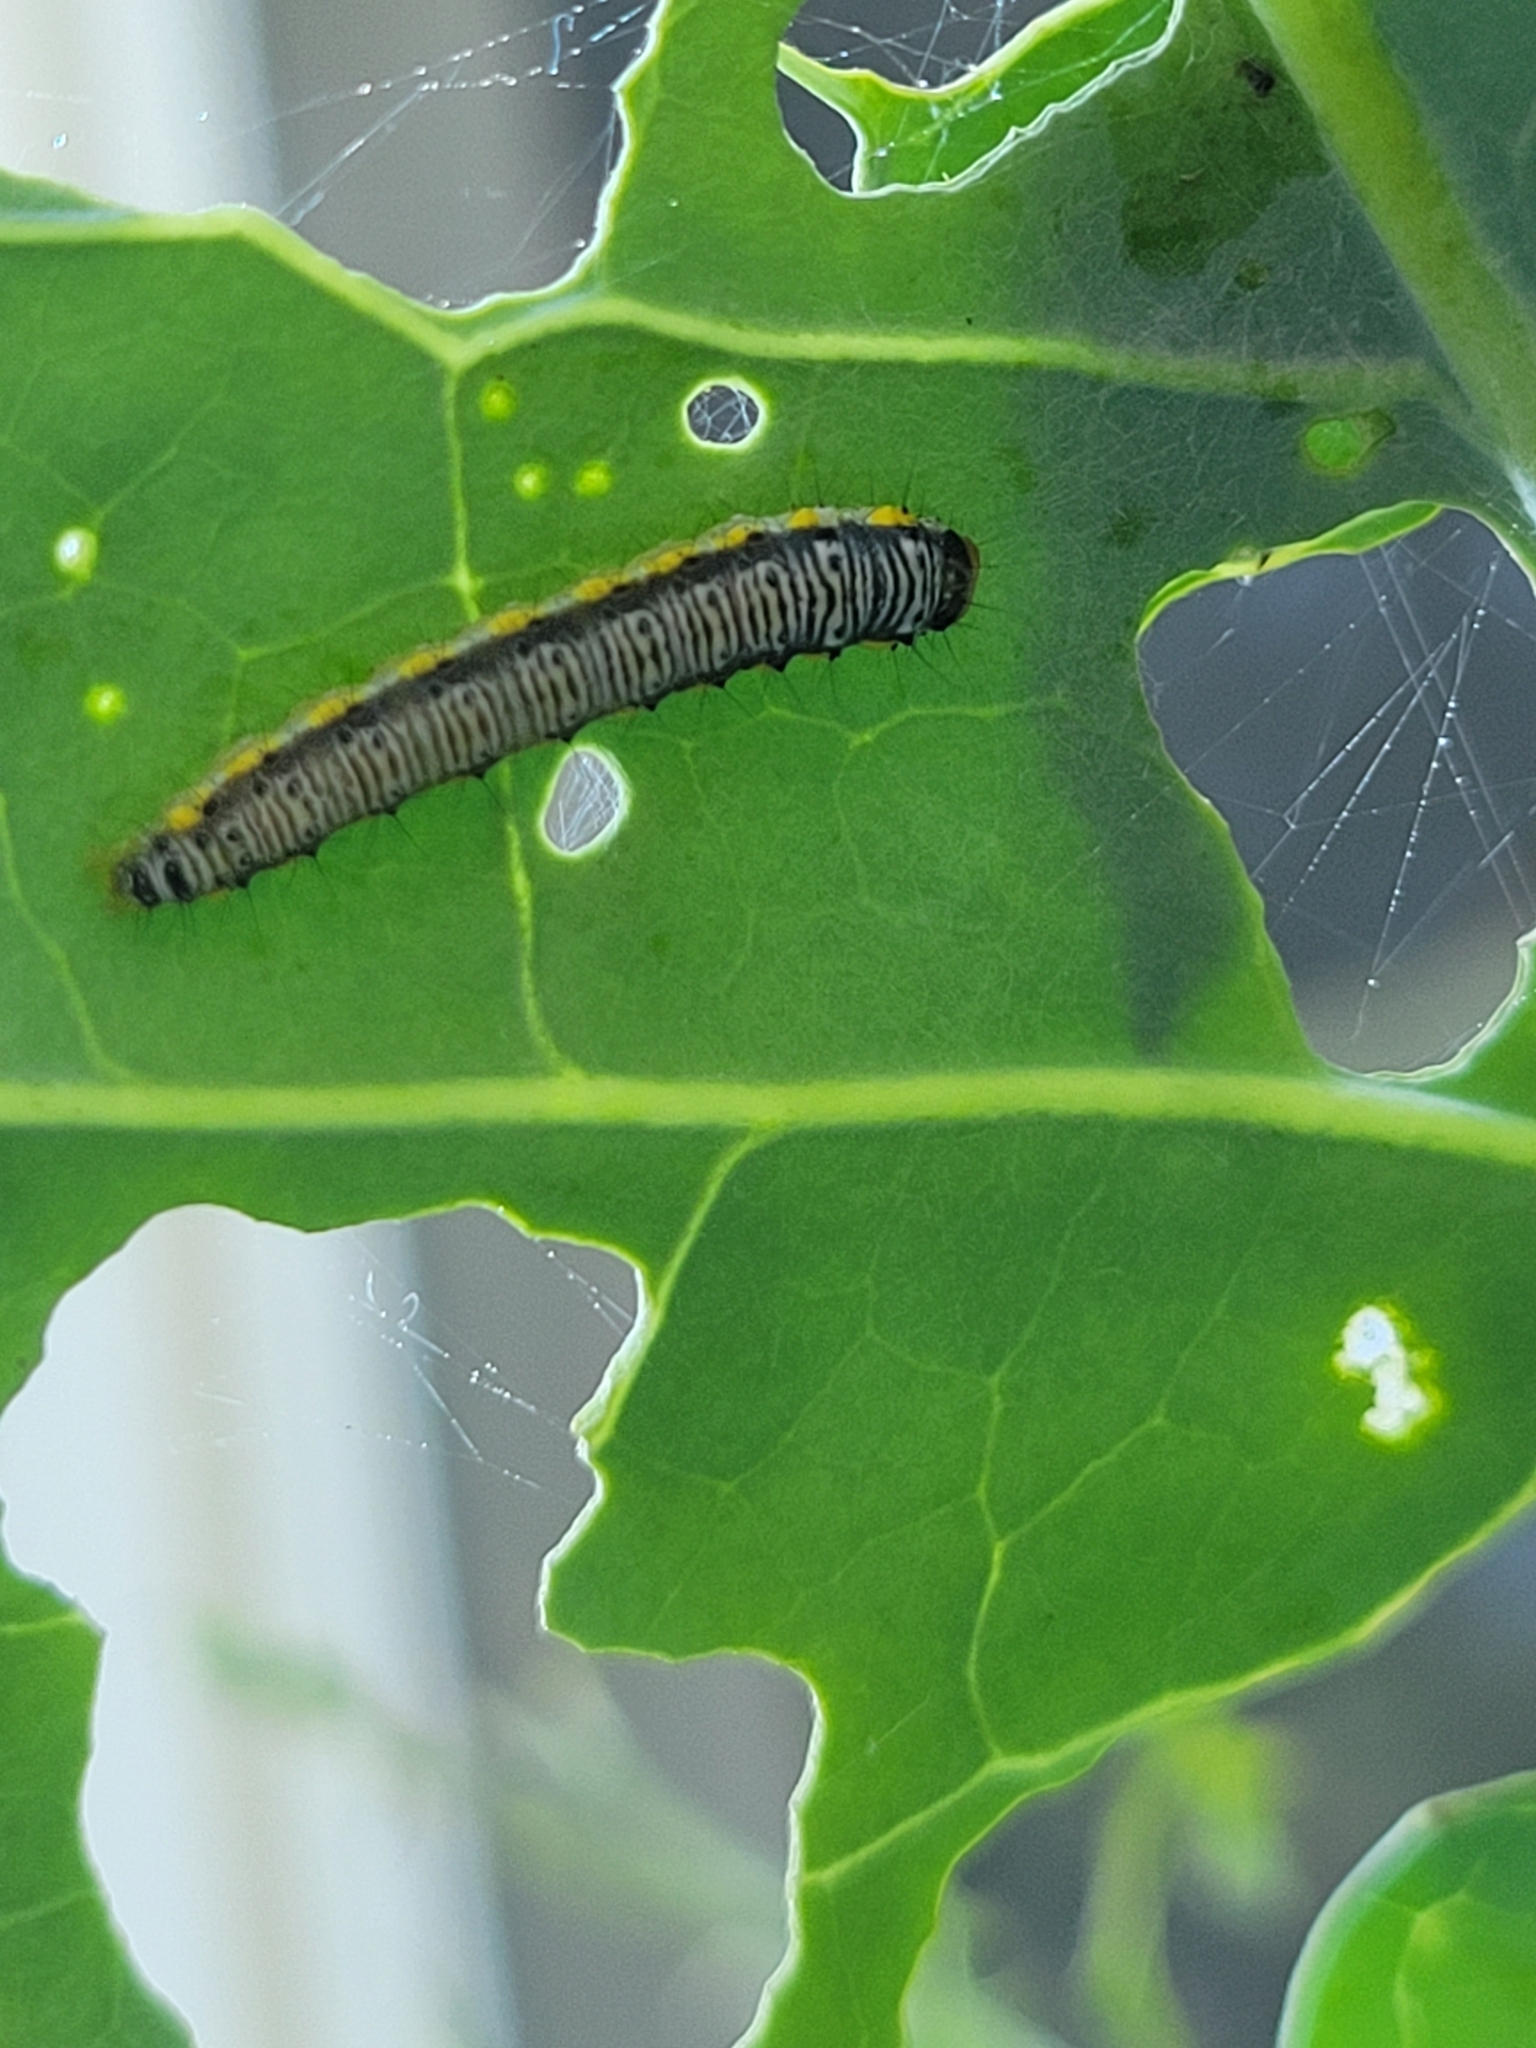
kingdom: Animalia
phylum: Arthropoda
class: Insecta
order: Lepidoptera
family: Crambidae
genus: Evergestis
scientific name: Evergestis rimosalis
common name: Cross-striped cabbageworm moth
